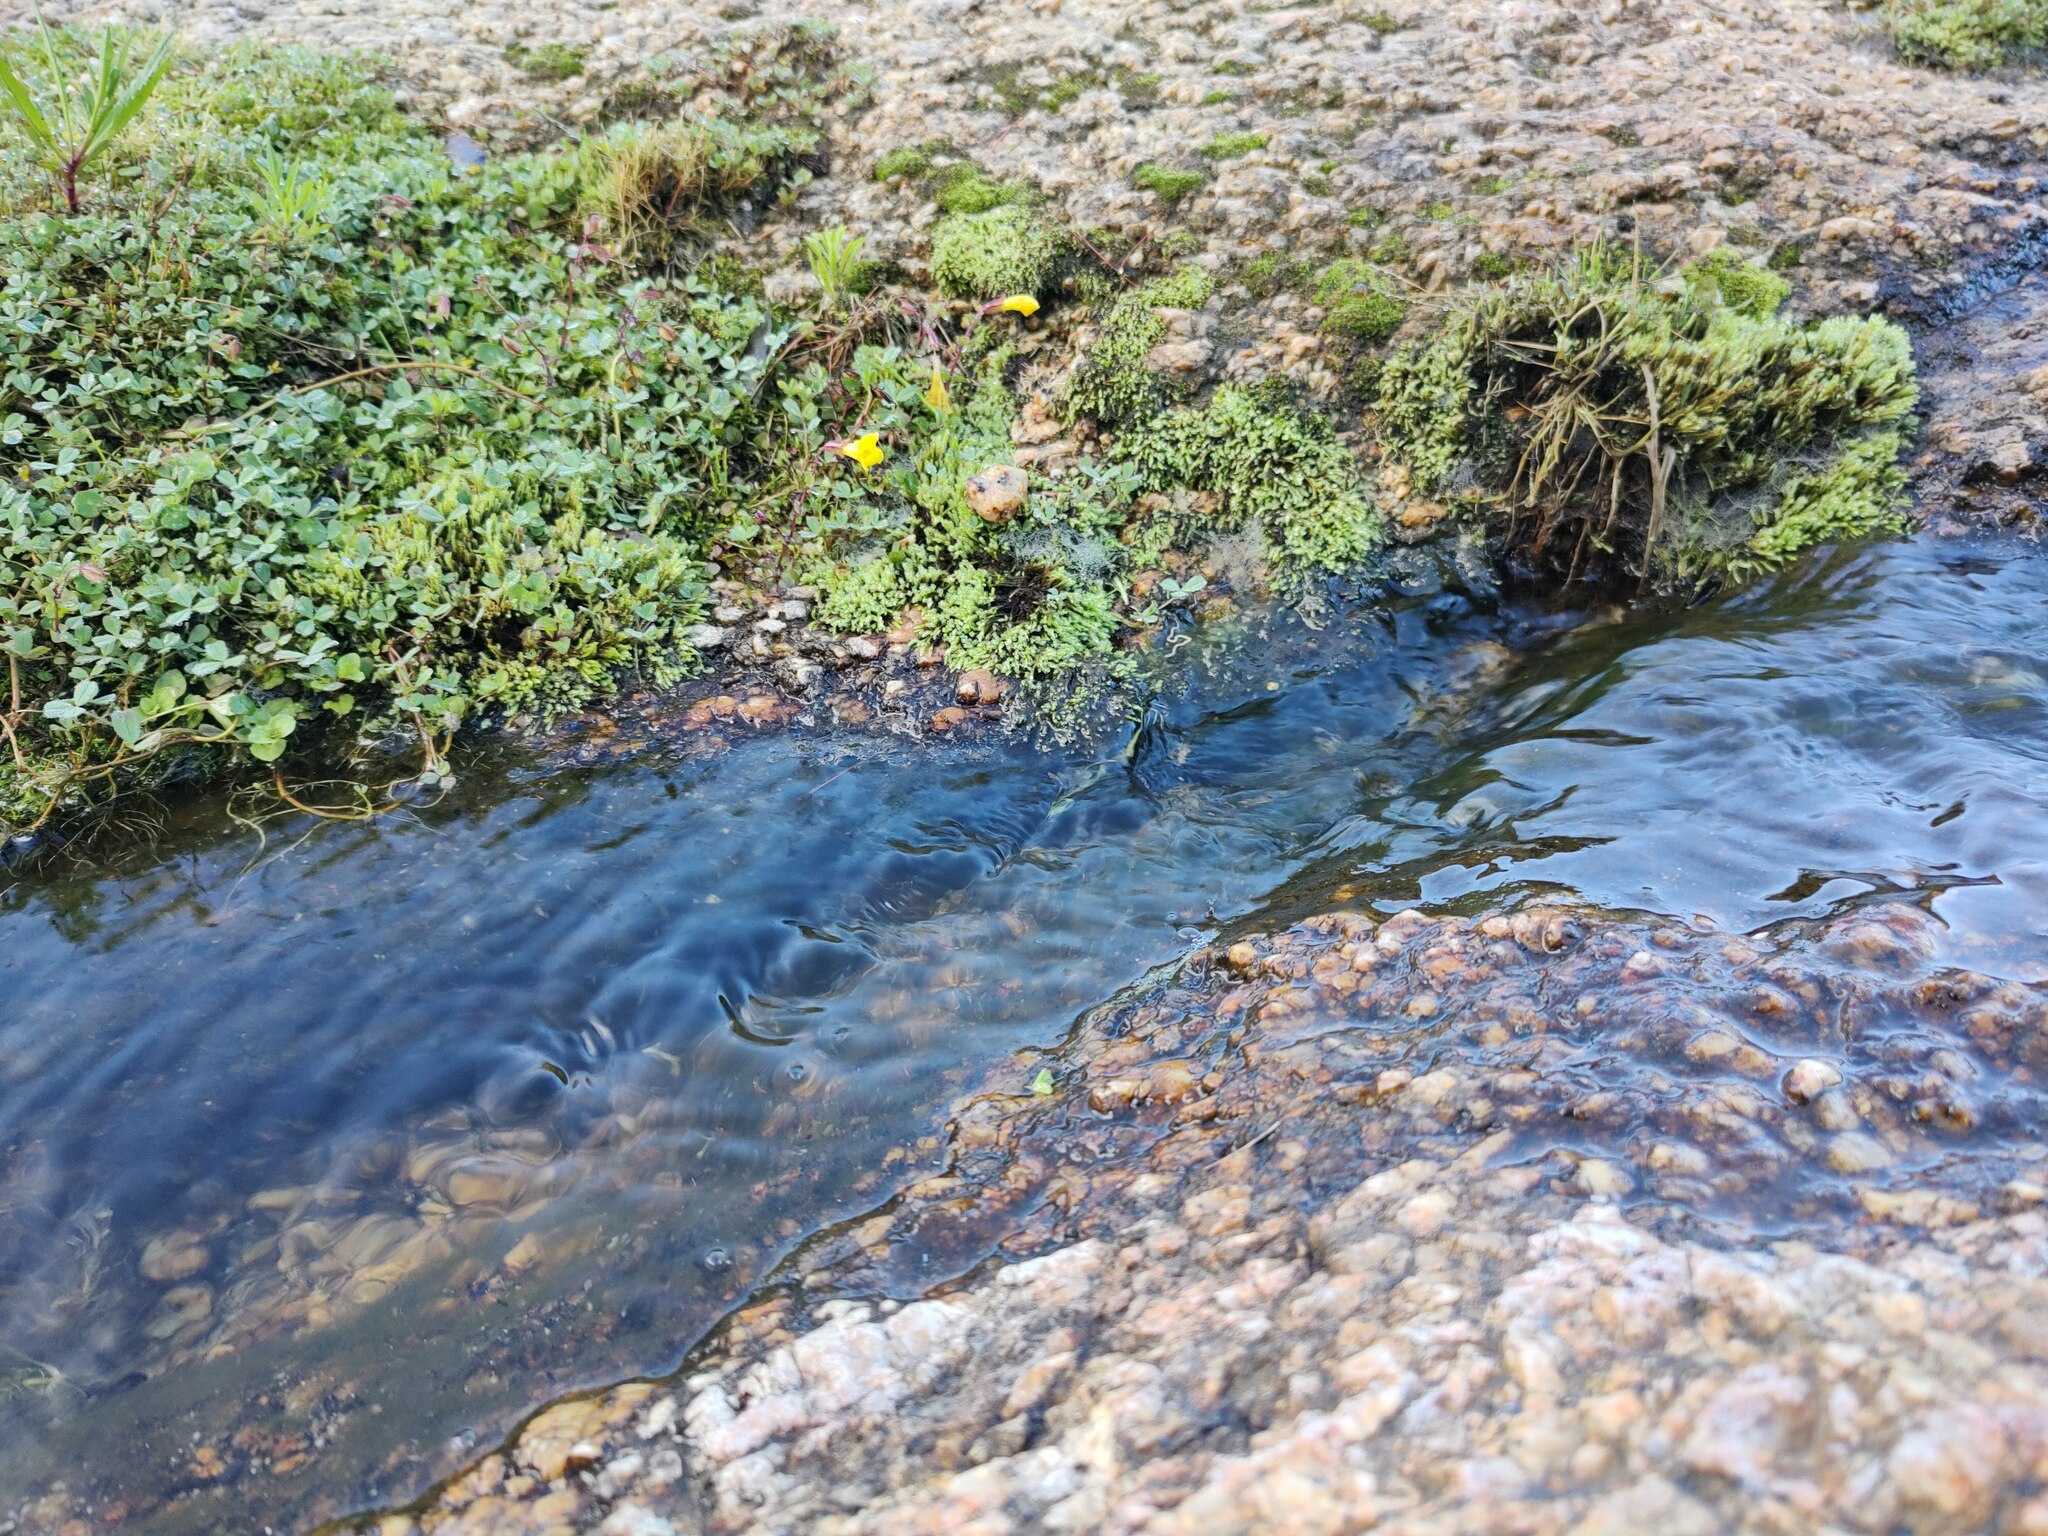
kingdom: Plantae
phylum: Tracheophyta
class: Magnoliopsida
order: Lamiales
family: Phrymaceae
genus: Erythranthe
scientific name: Erythranthe lagunensis
